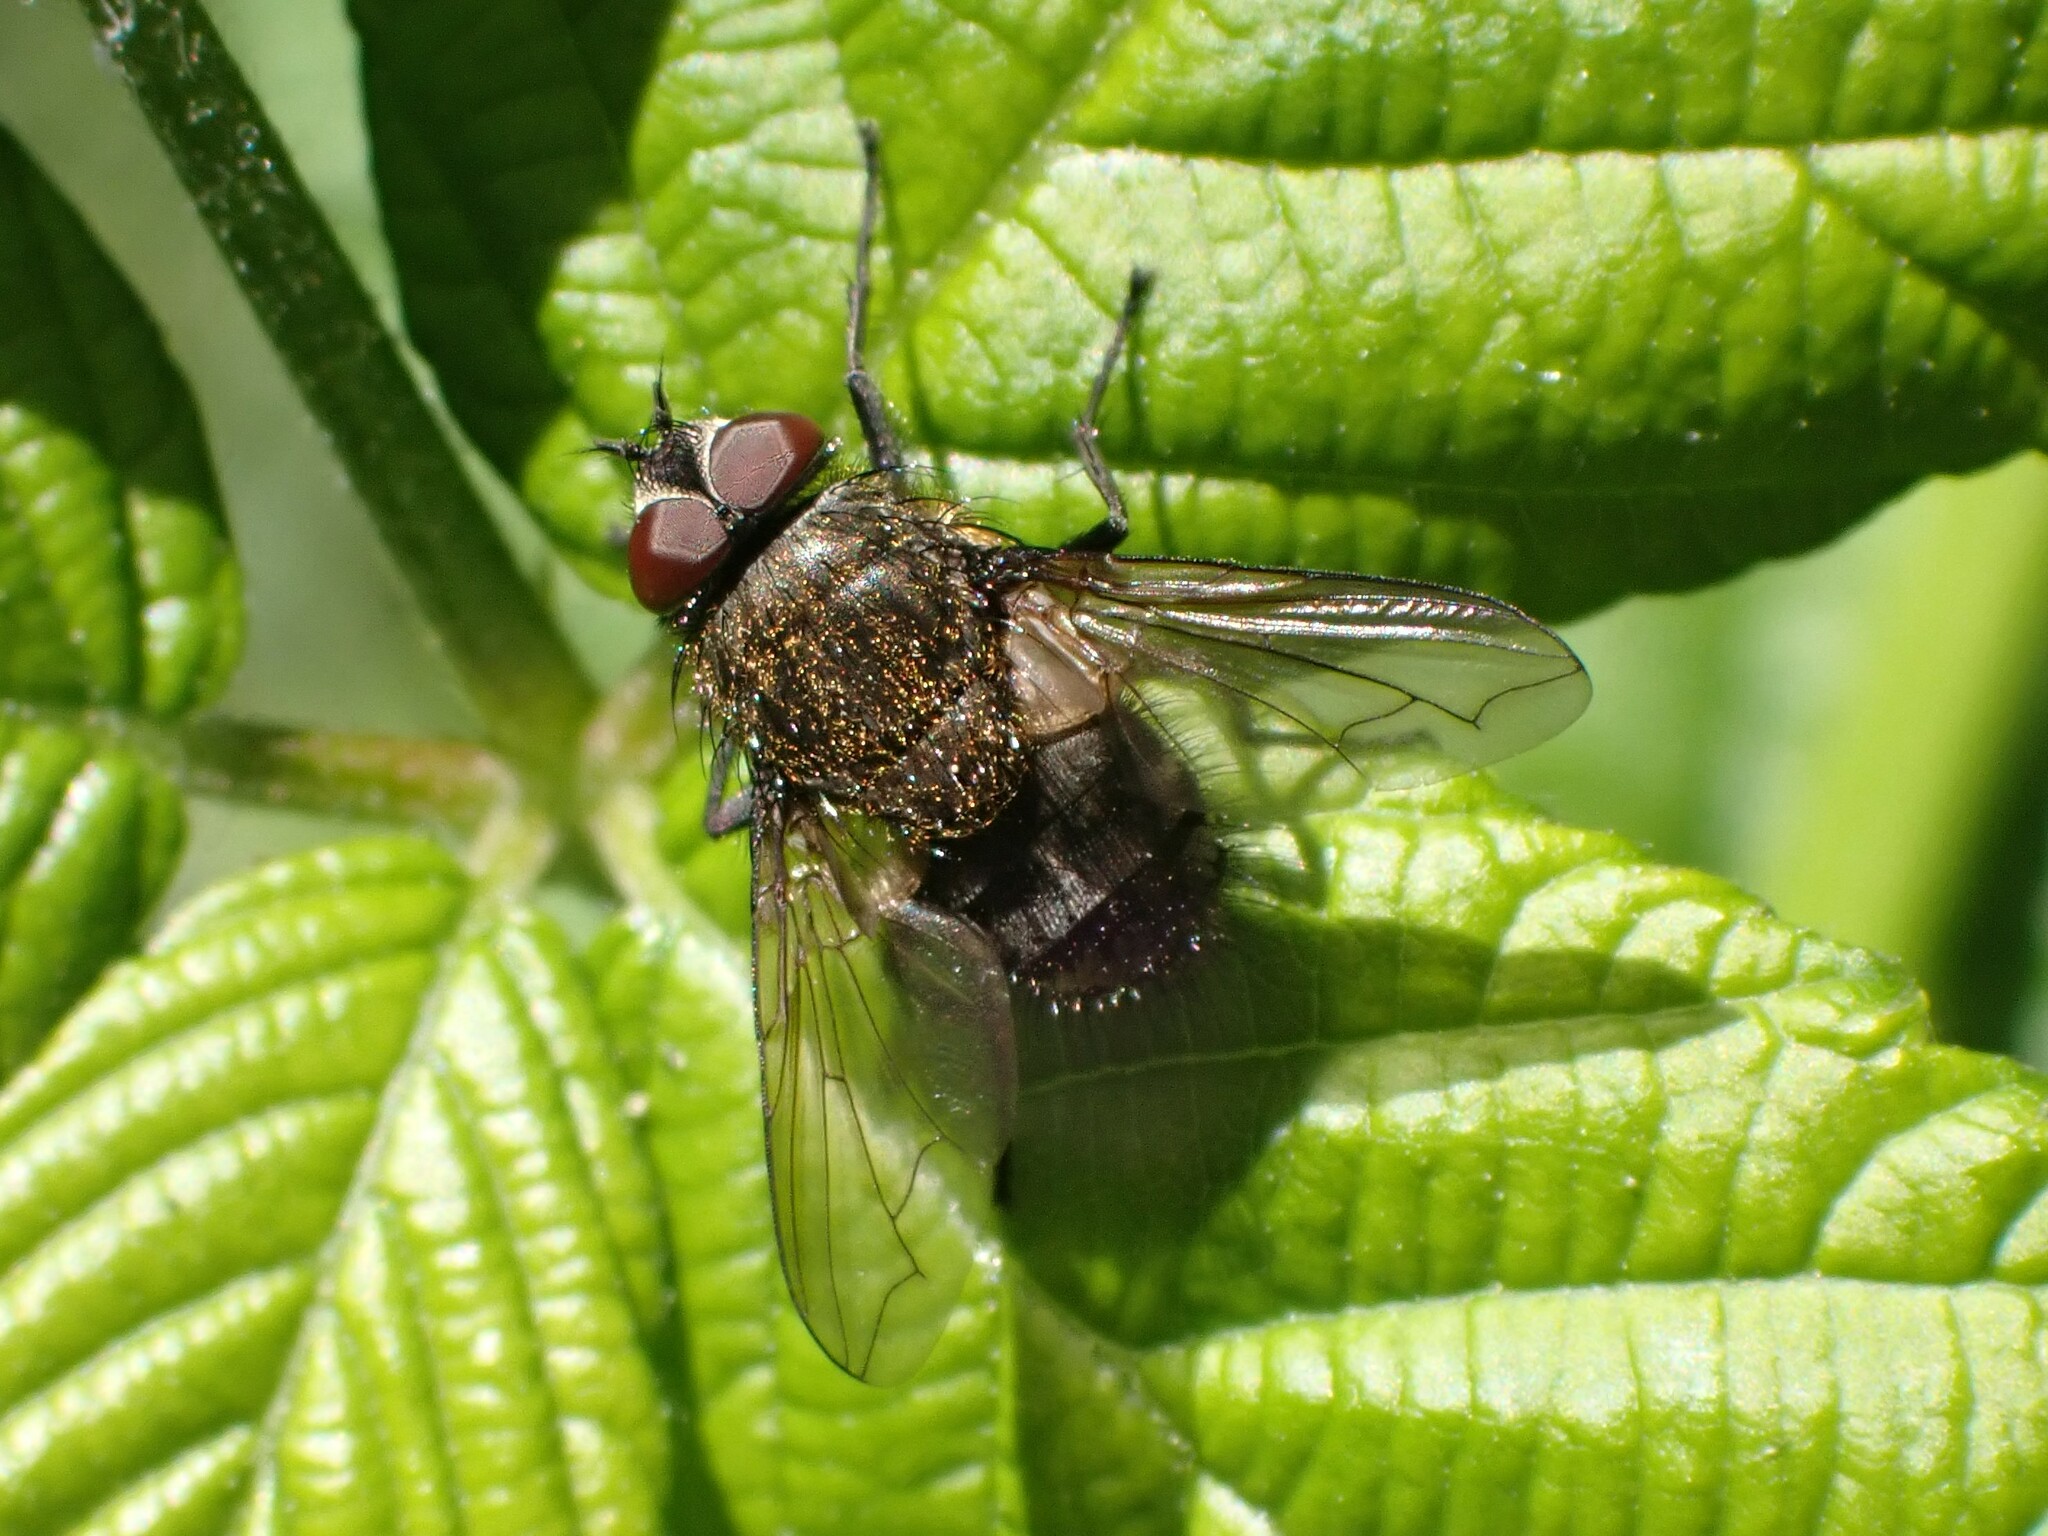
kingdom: Animalia
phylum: Arthropoda
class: Insecta
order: Diptera
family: Polleniidae
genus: Pollenia
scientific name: Pollenia
